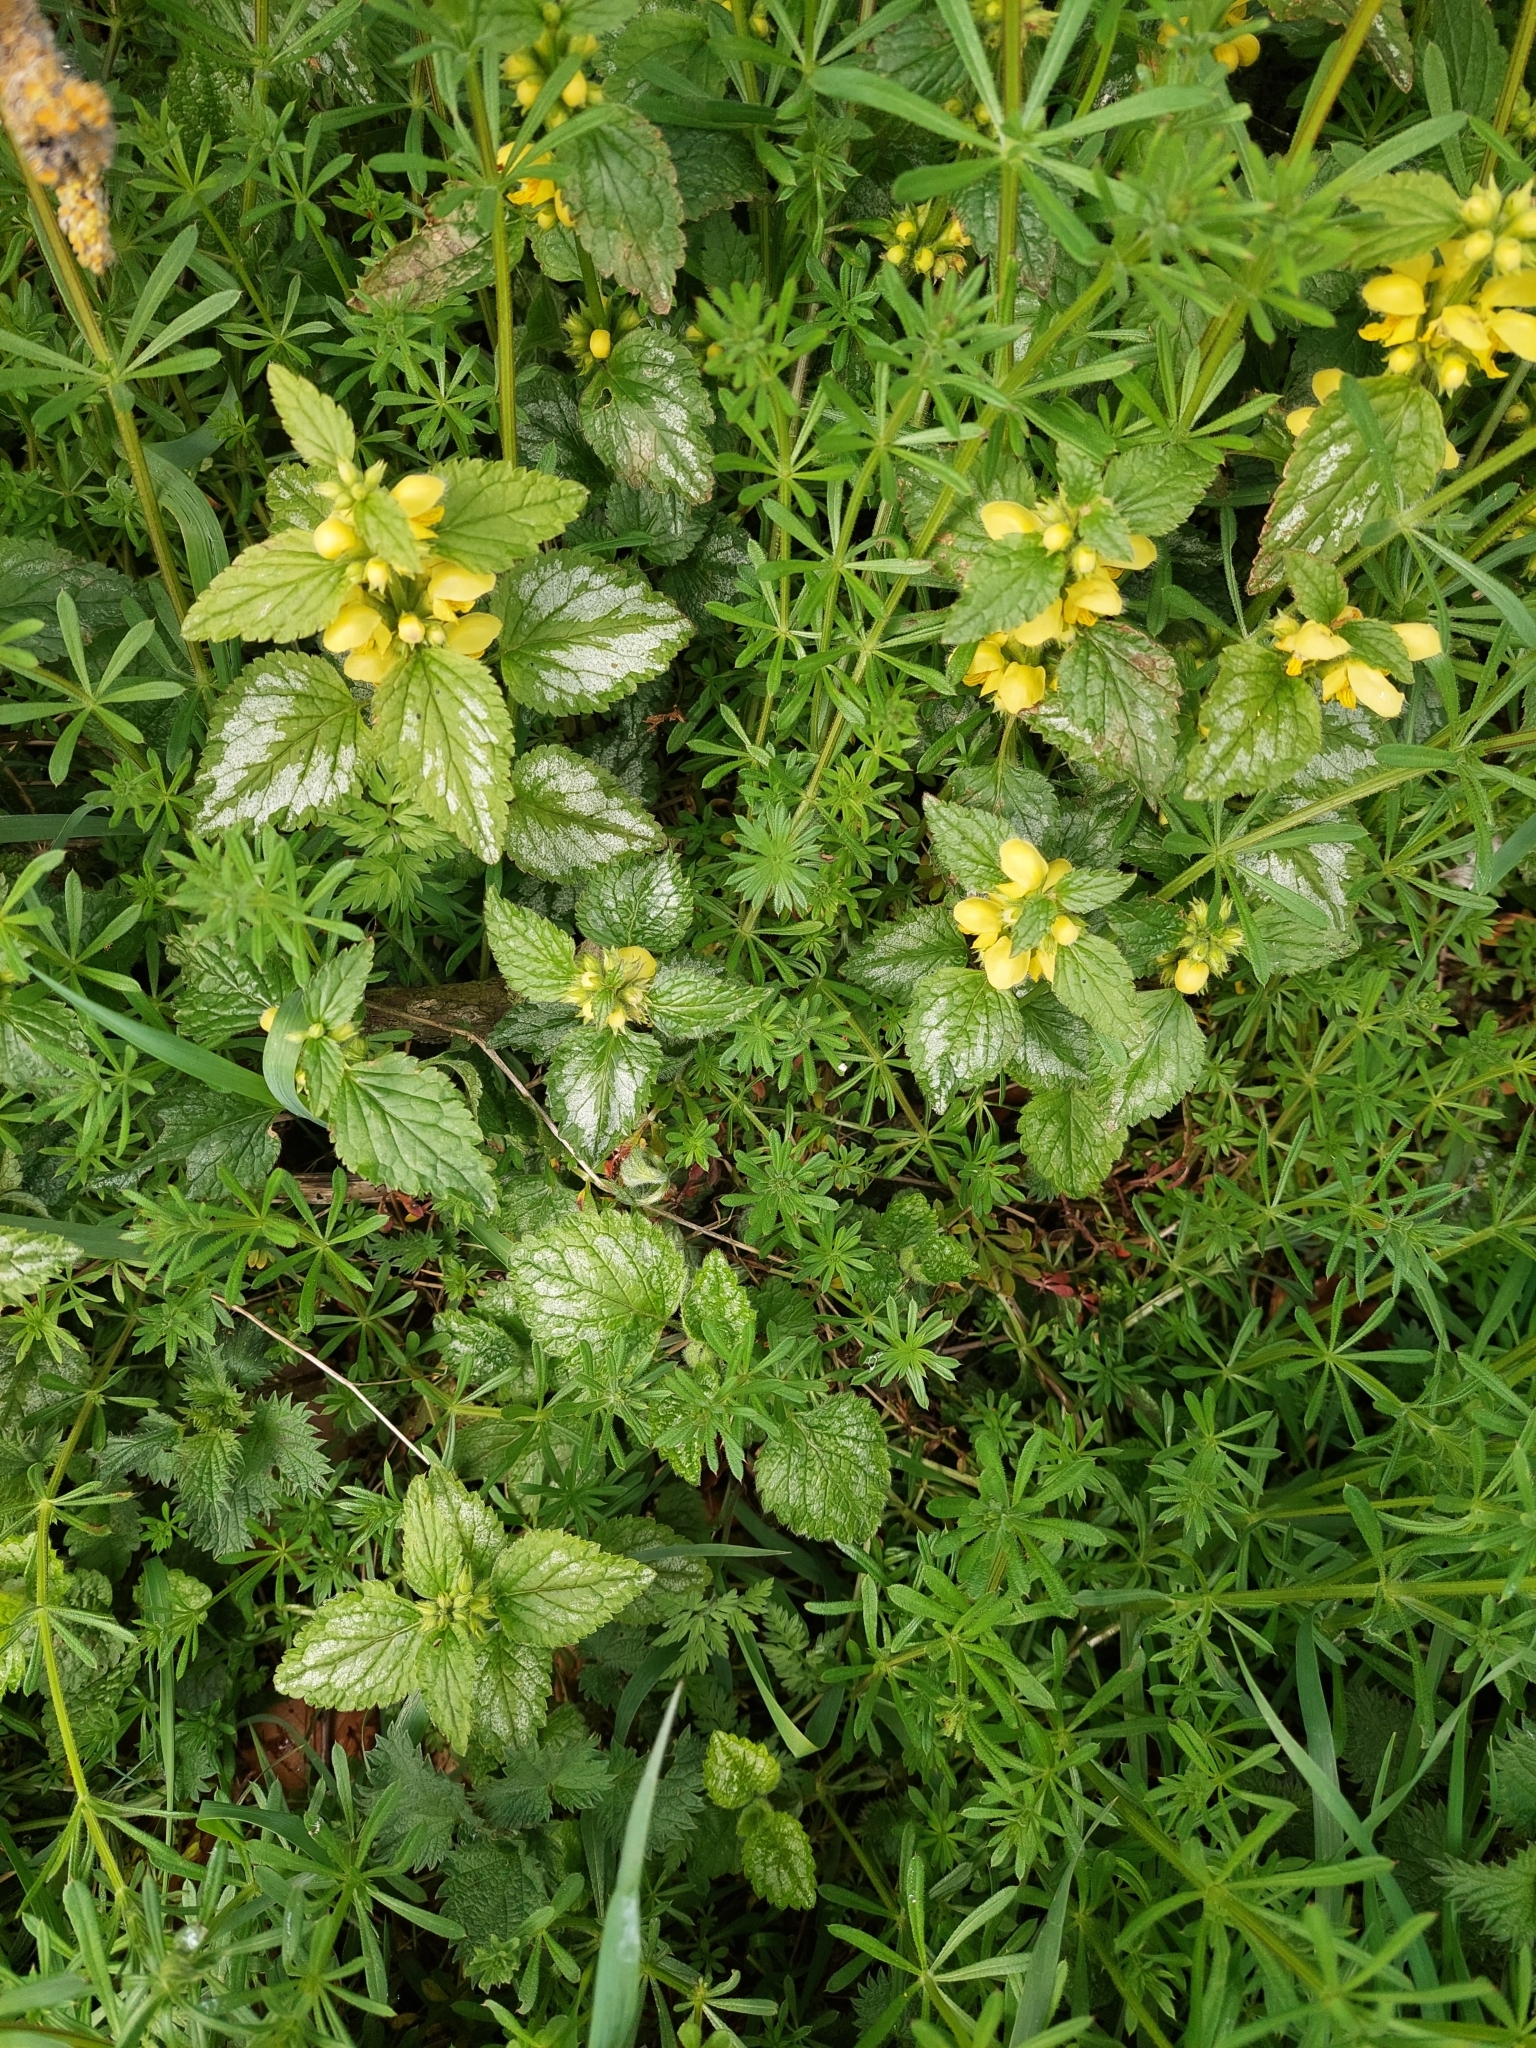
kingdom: Plantae
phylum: Tracheophyta
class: Magnoliopsida
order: Lamiales
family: Lamiaceae
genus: Lamium
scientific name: Lamium galeobdolon
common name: Yellow archangel
